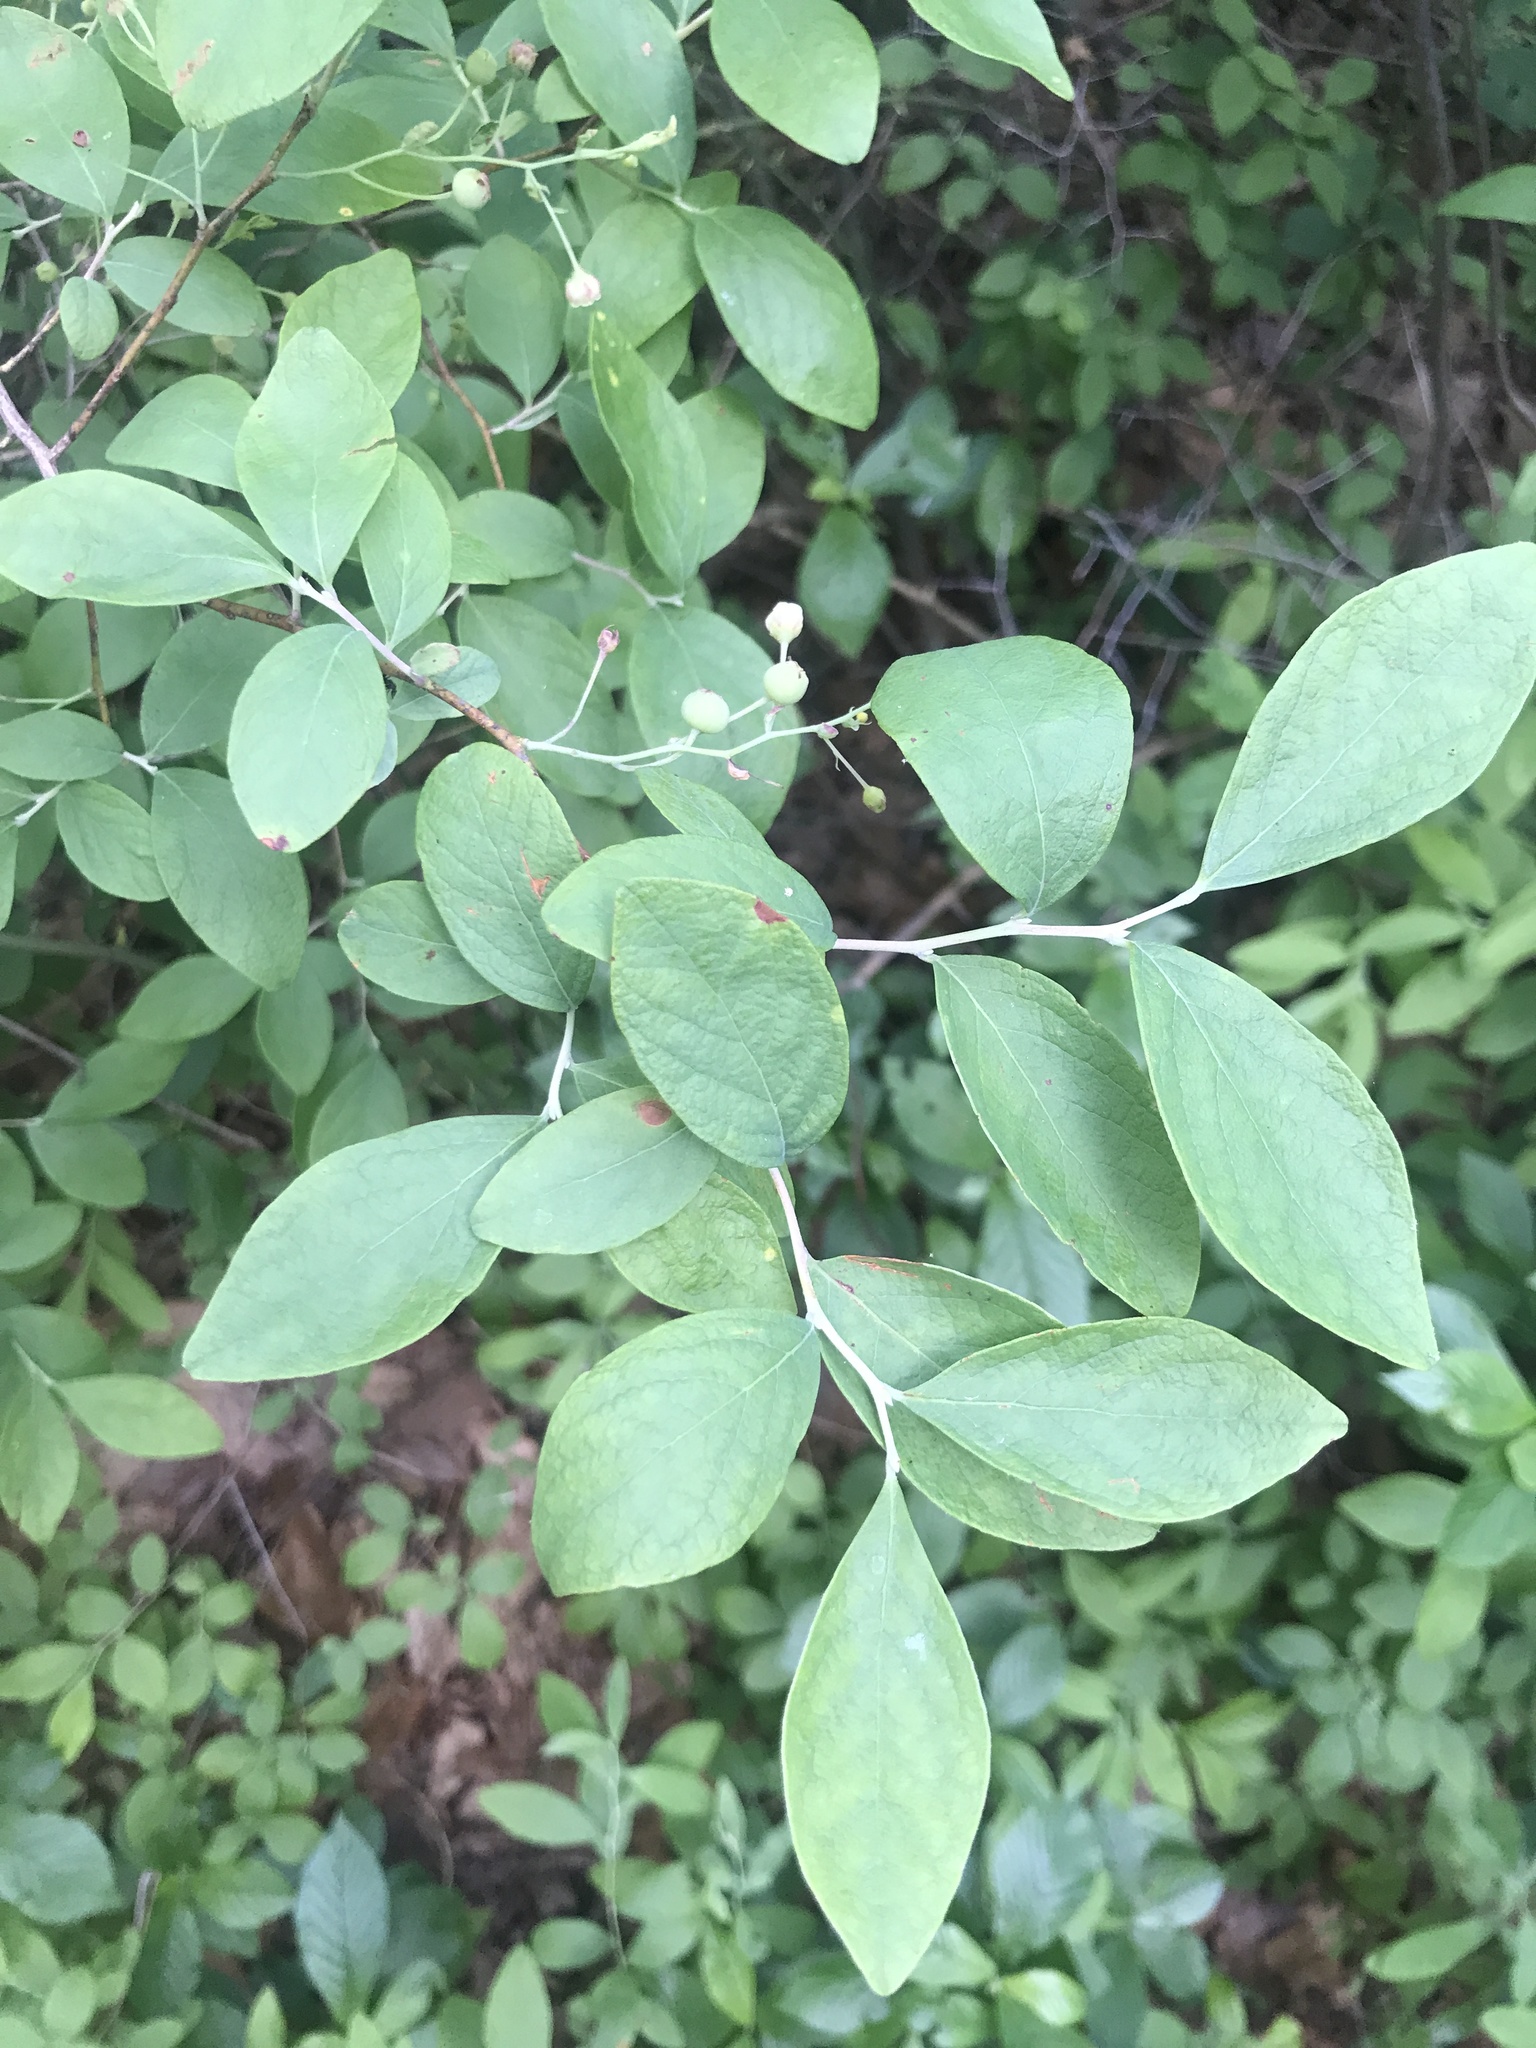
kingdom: Plantae
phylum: Tracheophyta
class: Magnoliopsida
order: Ericales
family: Ericaceae
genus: Gaylussacia
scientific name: Gaylussacia frondosa
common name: Dangleberry
